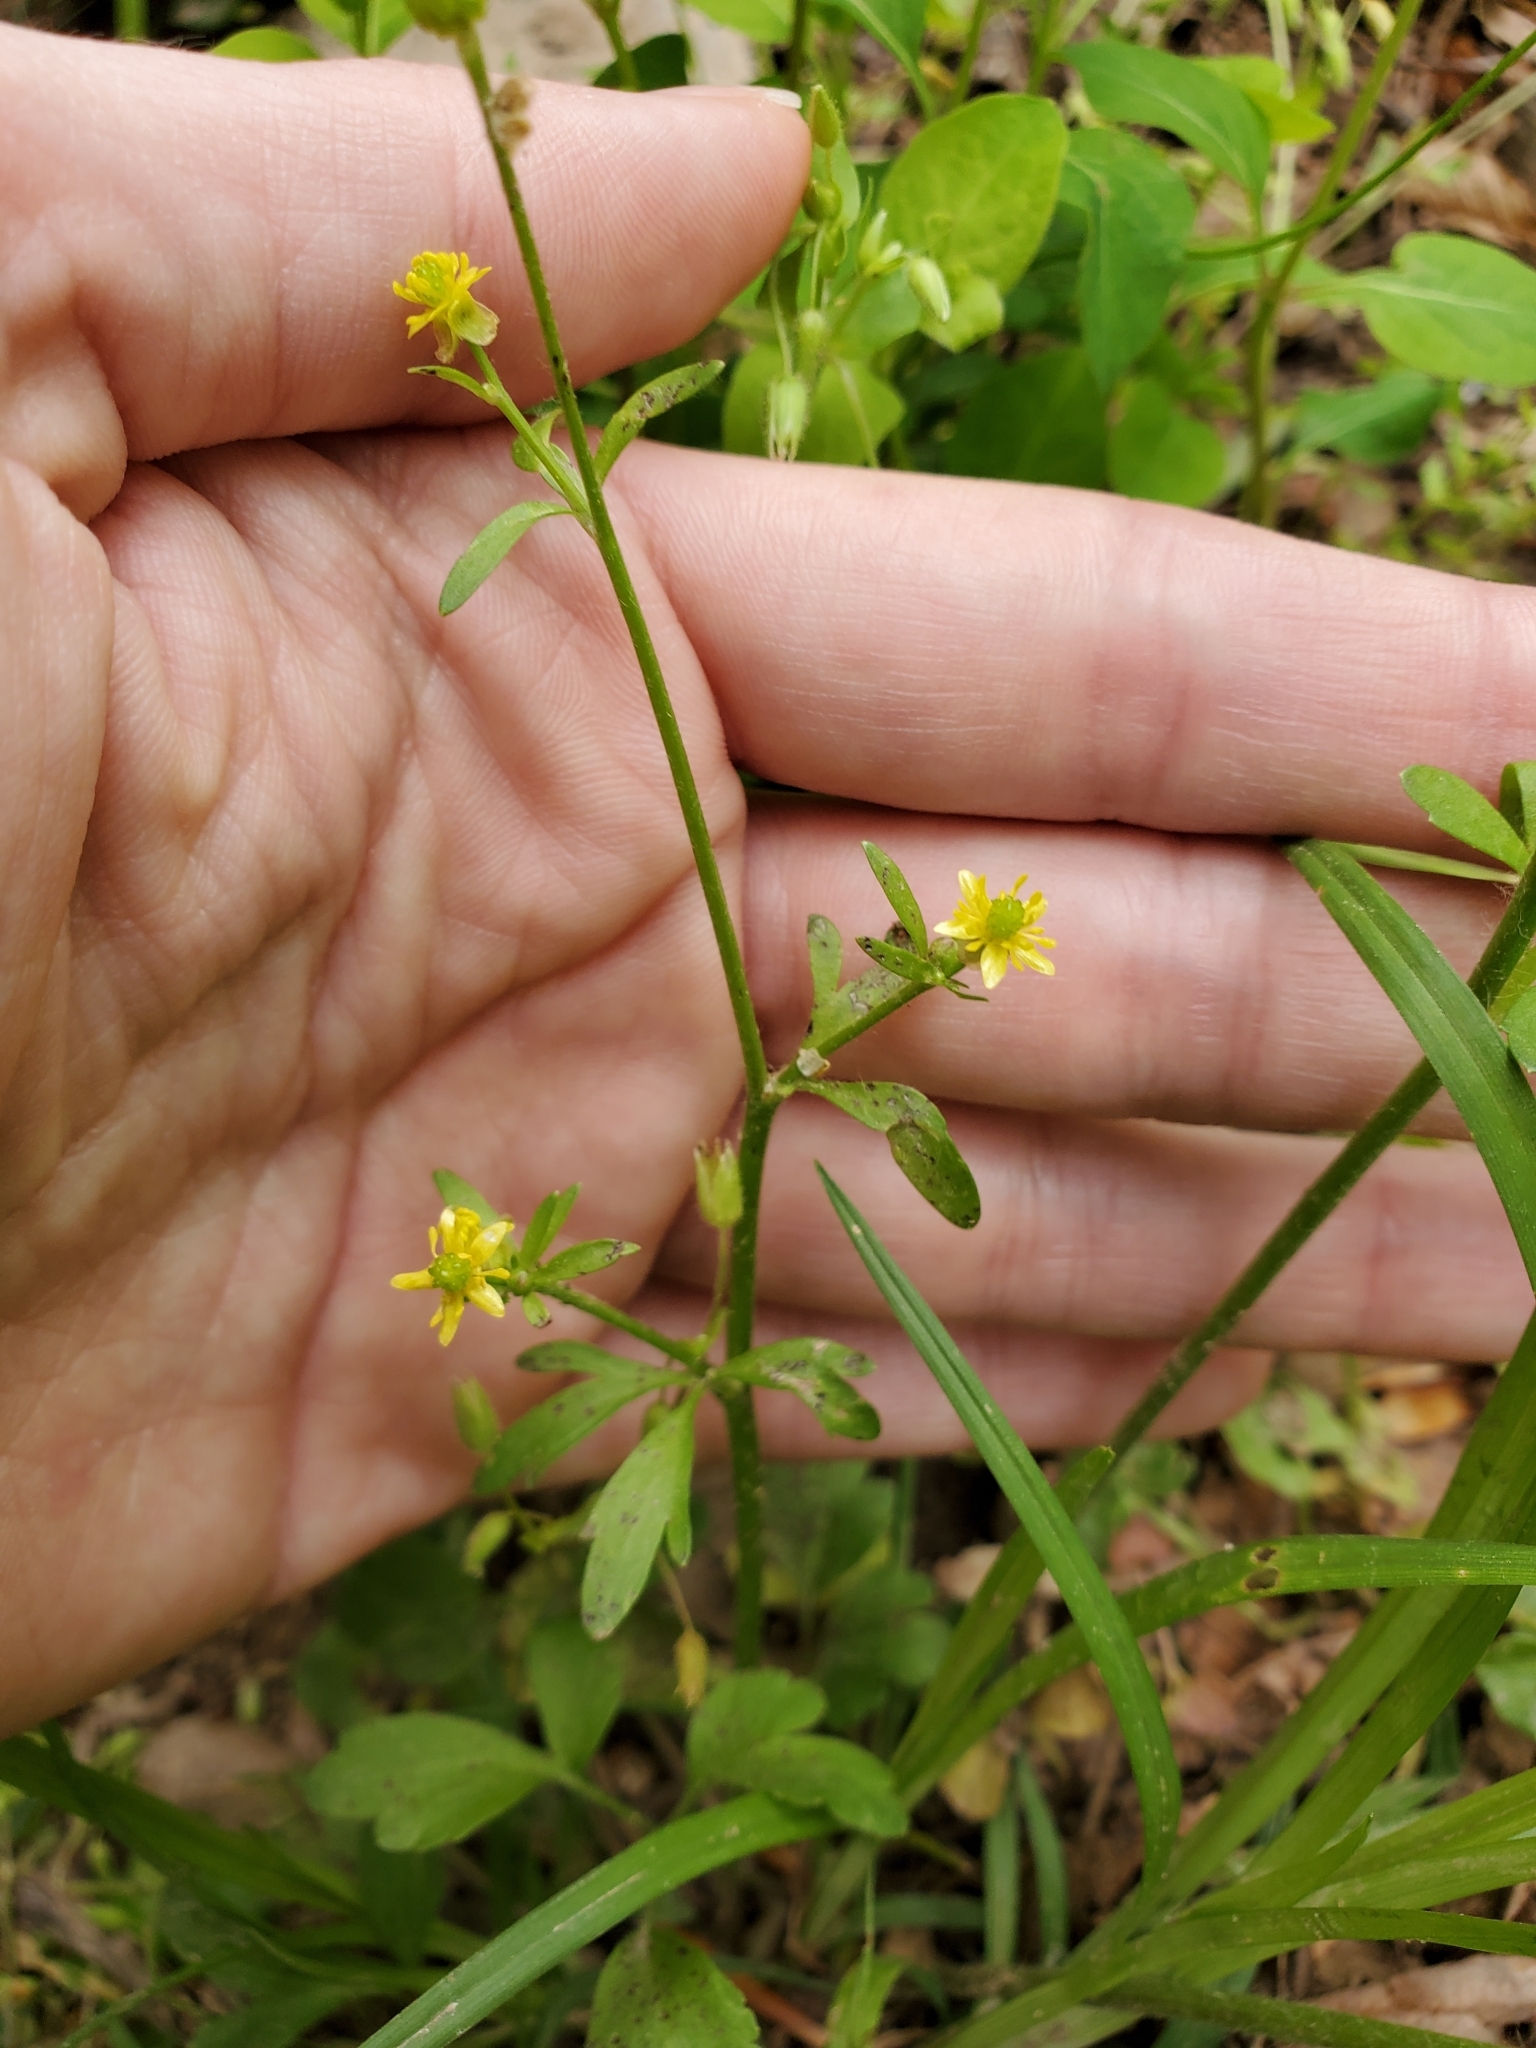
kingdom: Plantae
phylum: Tracheophyta
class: Magnoliopsida
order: Ranunculales
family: Ranunculaceae
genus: Ranunculus
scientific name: Ranunculus abortivus
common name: Early wood buttercup
